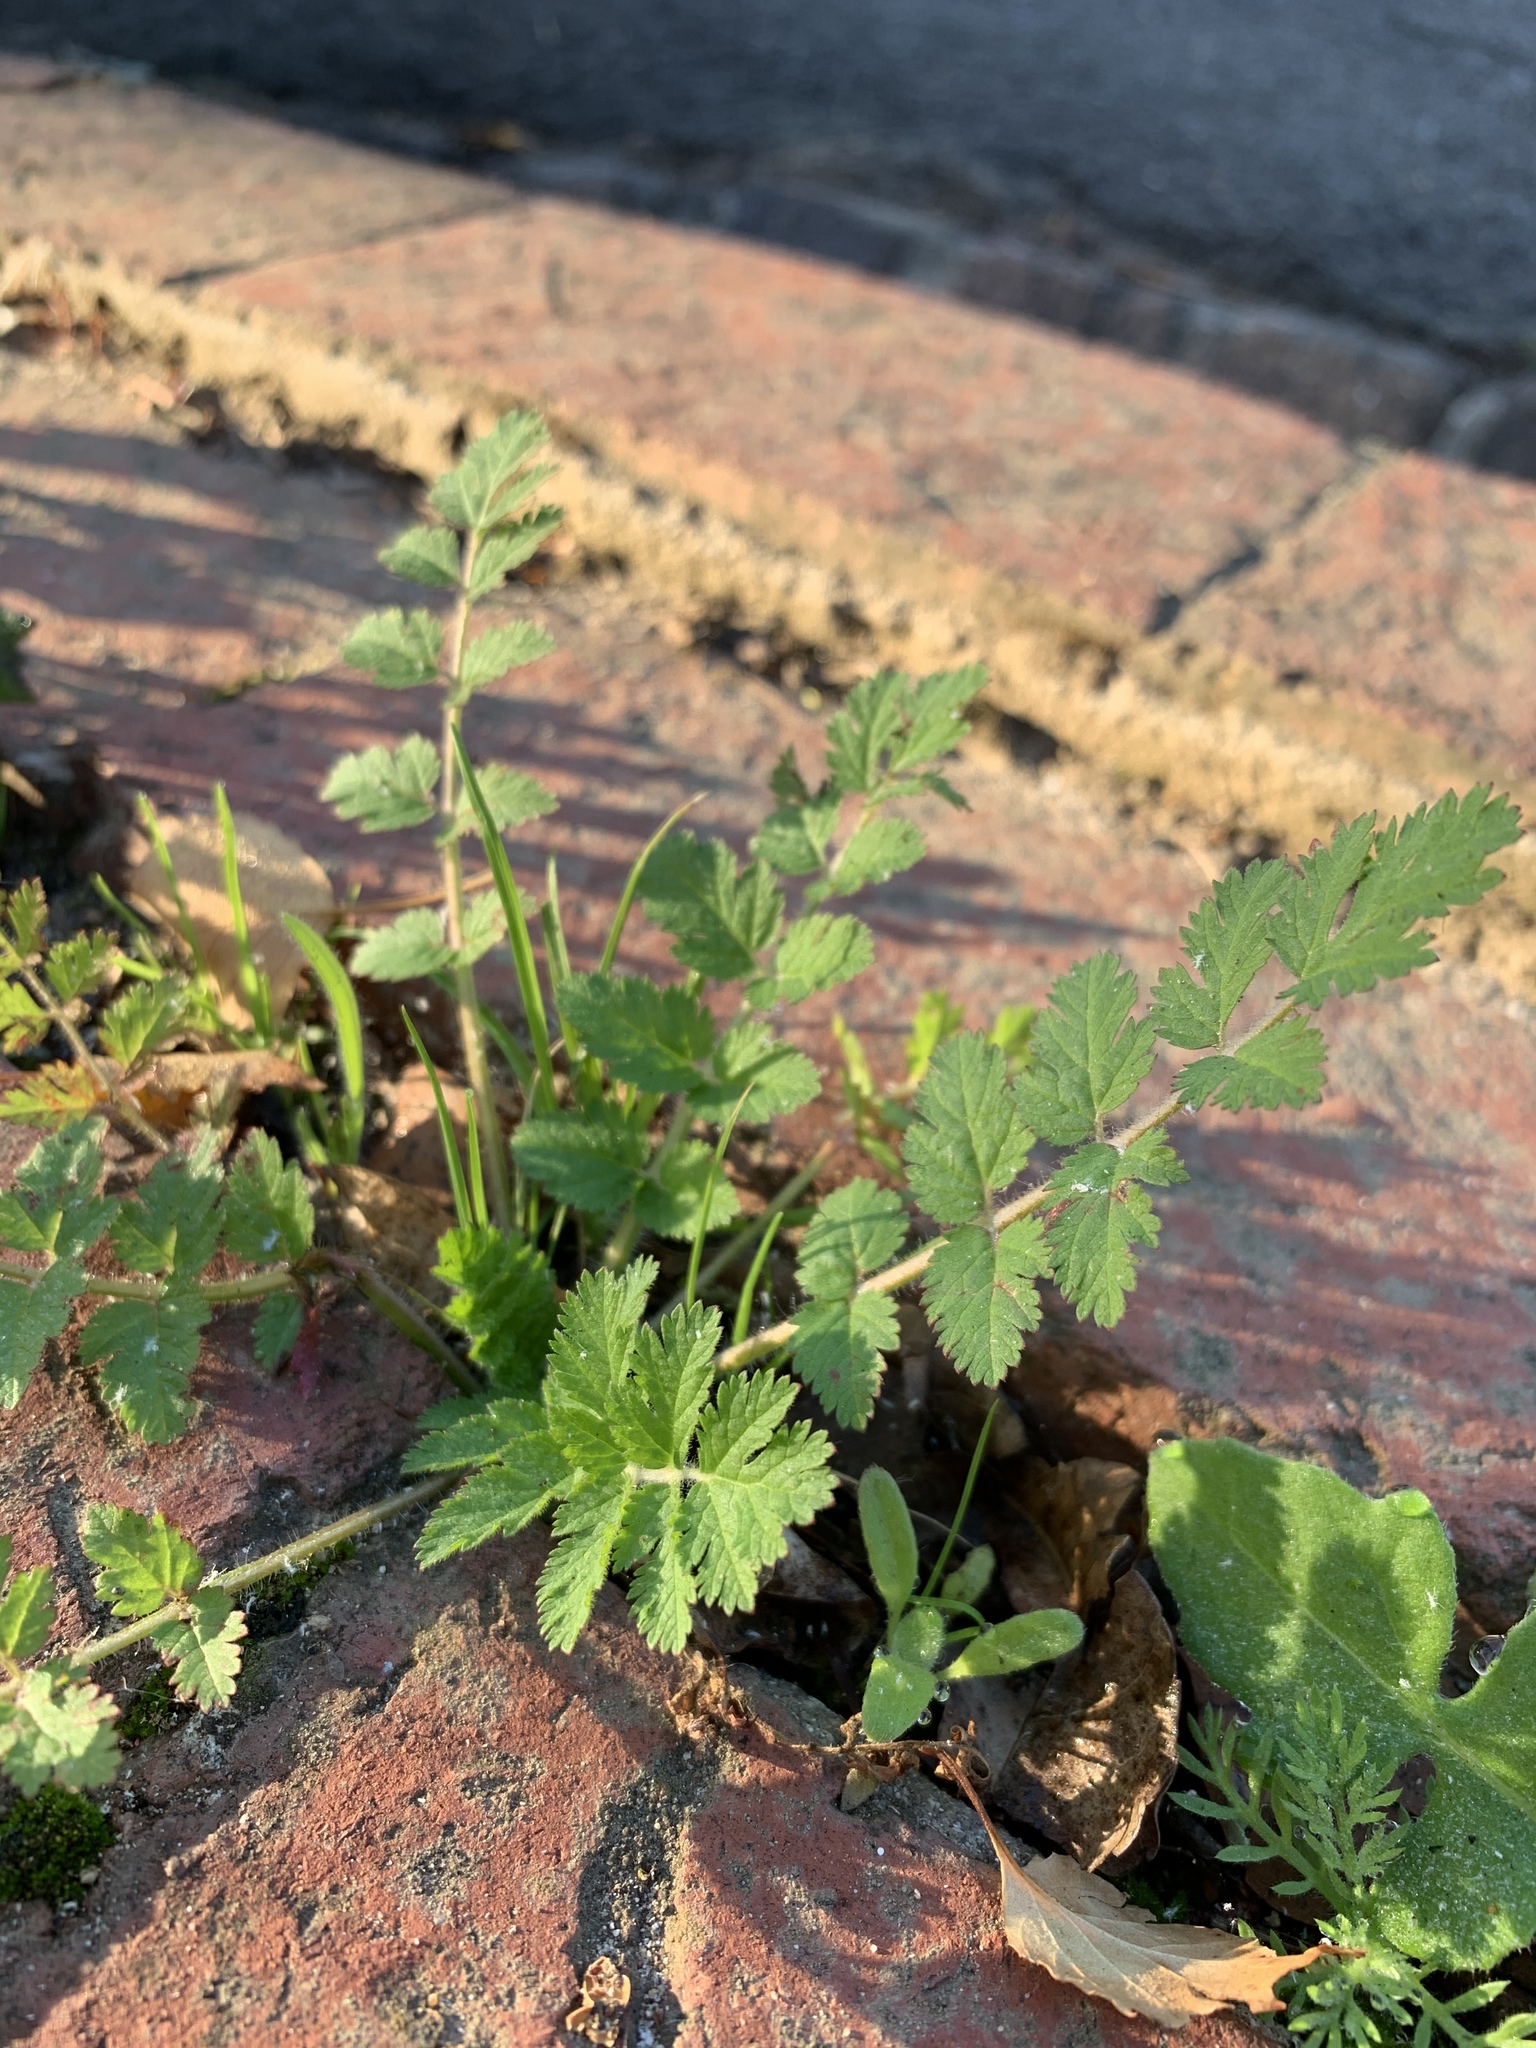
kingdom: Plantae
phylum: Tracheophyta
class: Magnoliopsida
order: Geraniales
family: Geraniaceae
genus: Erodium
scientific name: Erodium moschatum
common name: Musk stork's-bill
